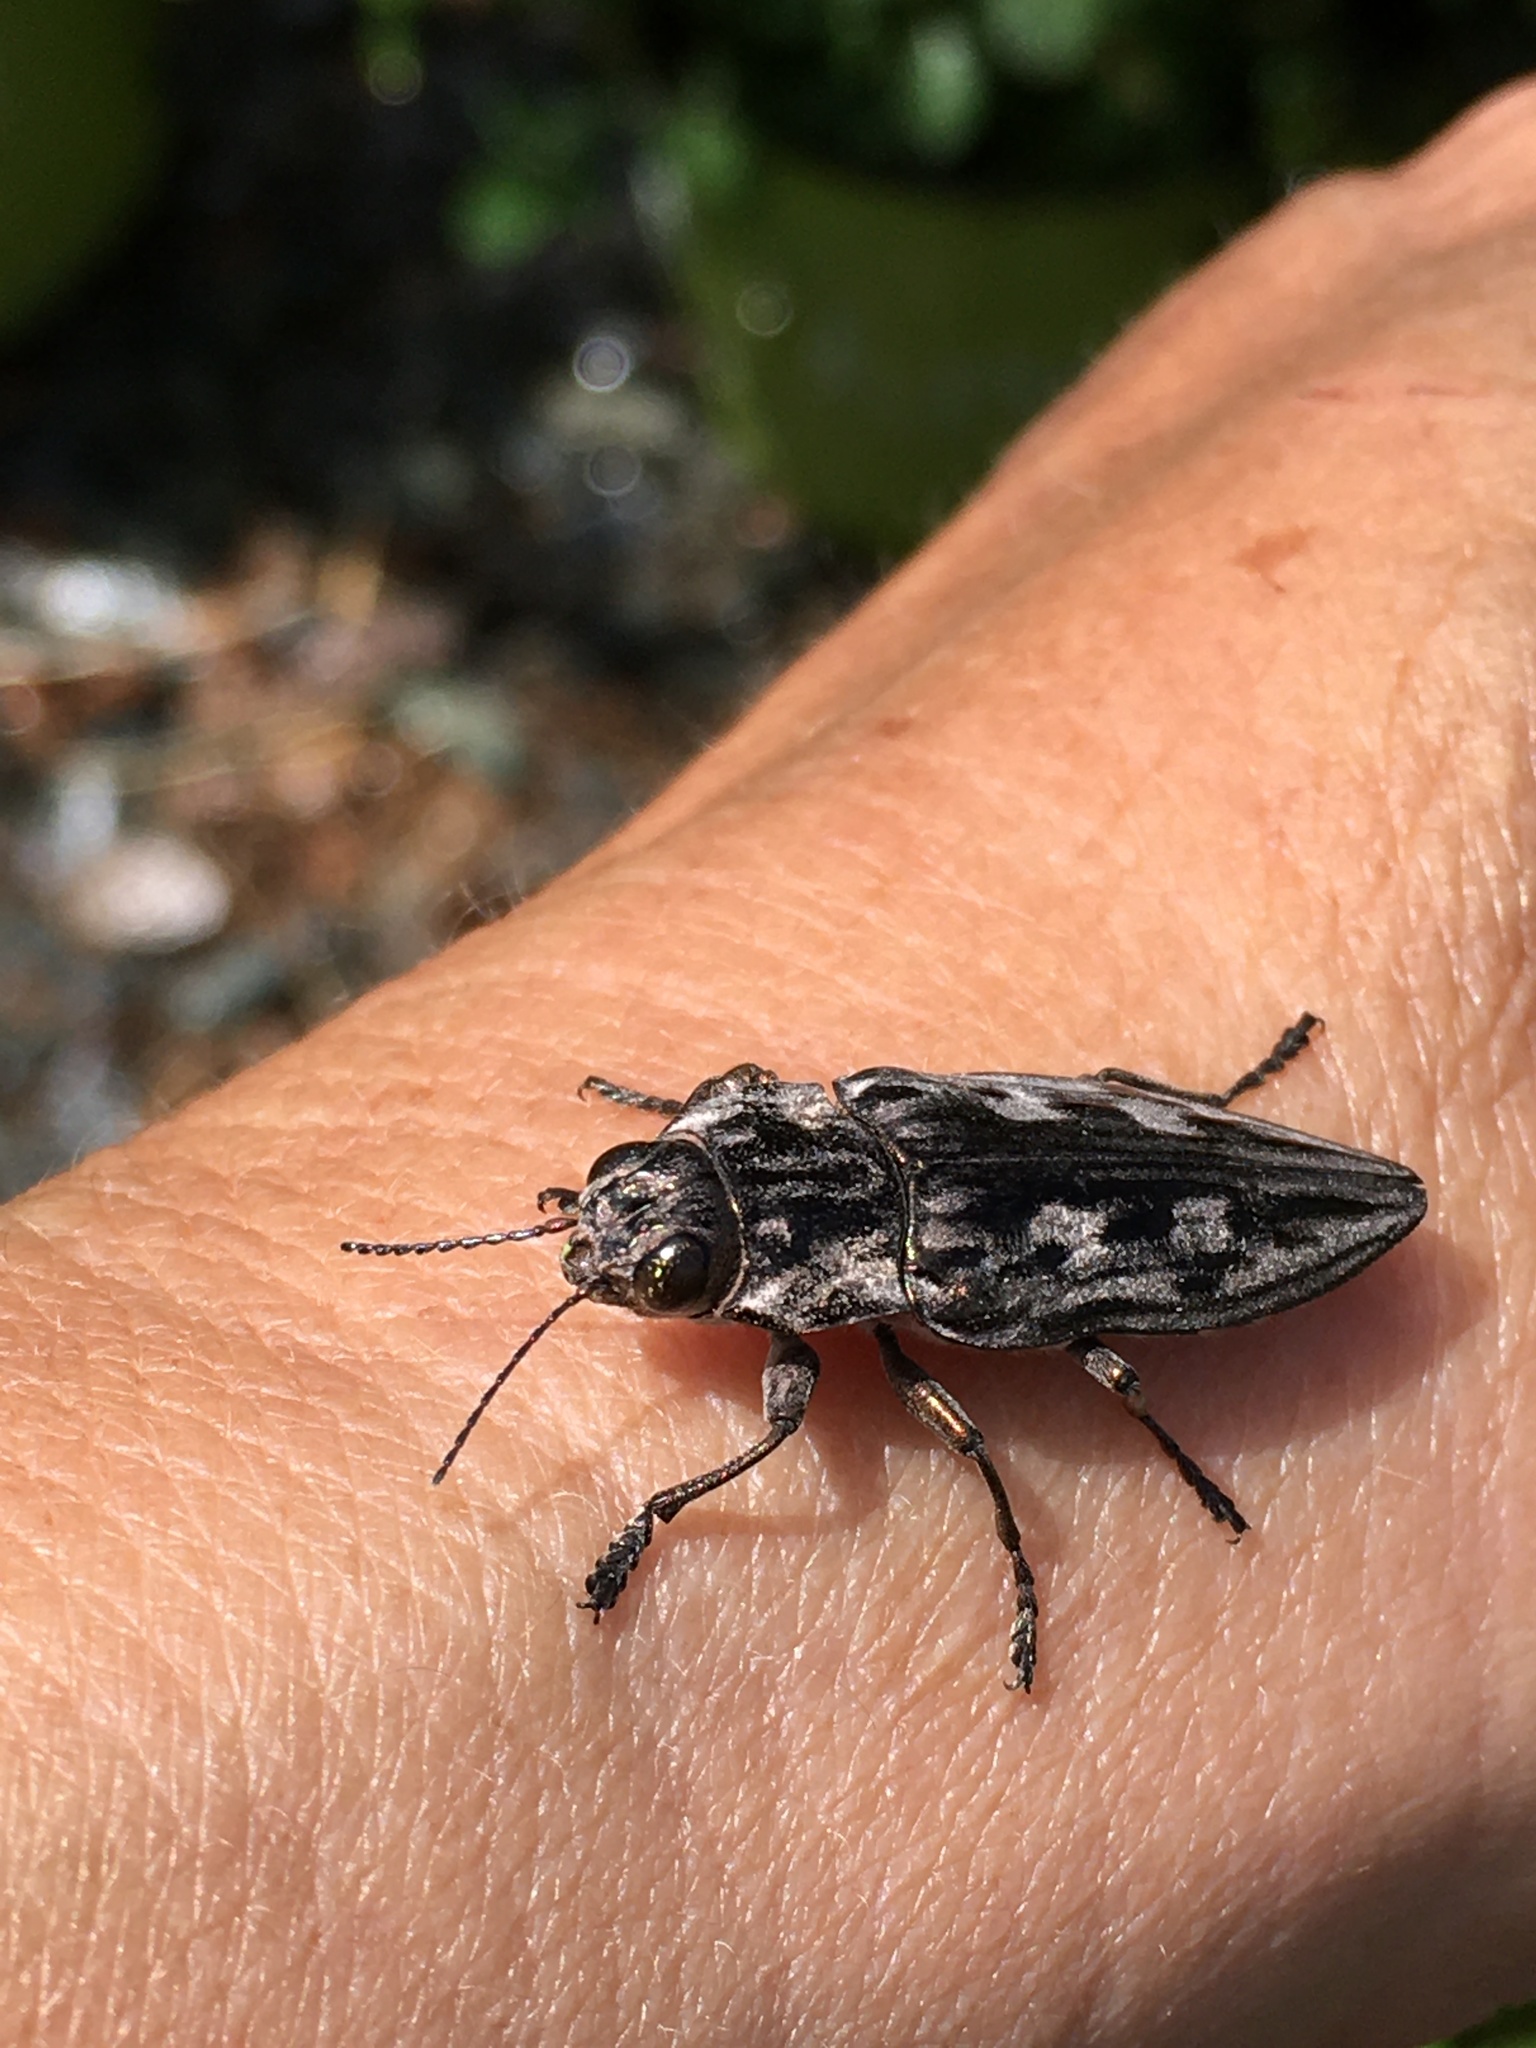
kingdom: Animalia
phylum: Arthropoda
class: Insecta
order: Coleoptera
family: Buprestidae
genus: Chalcophora
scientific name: Chalcophora virginiensis
